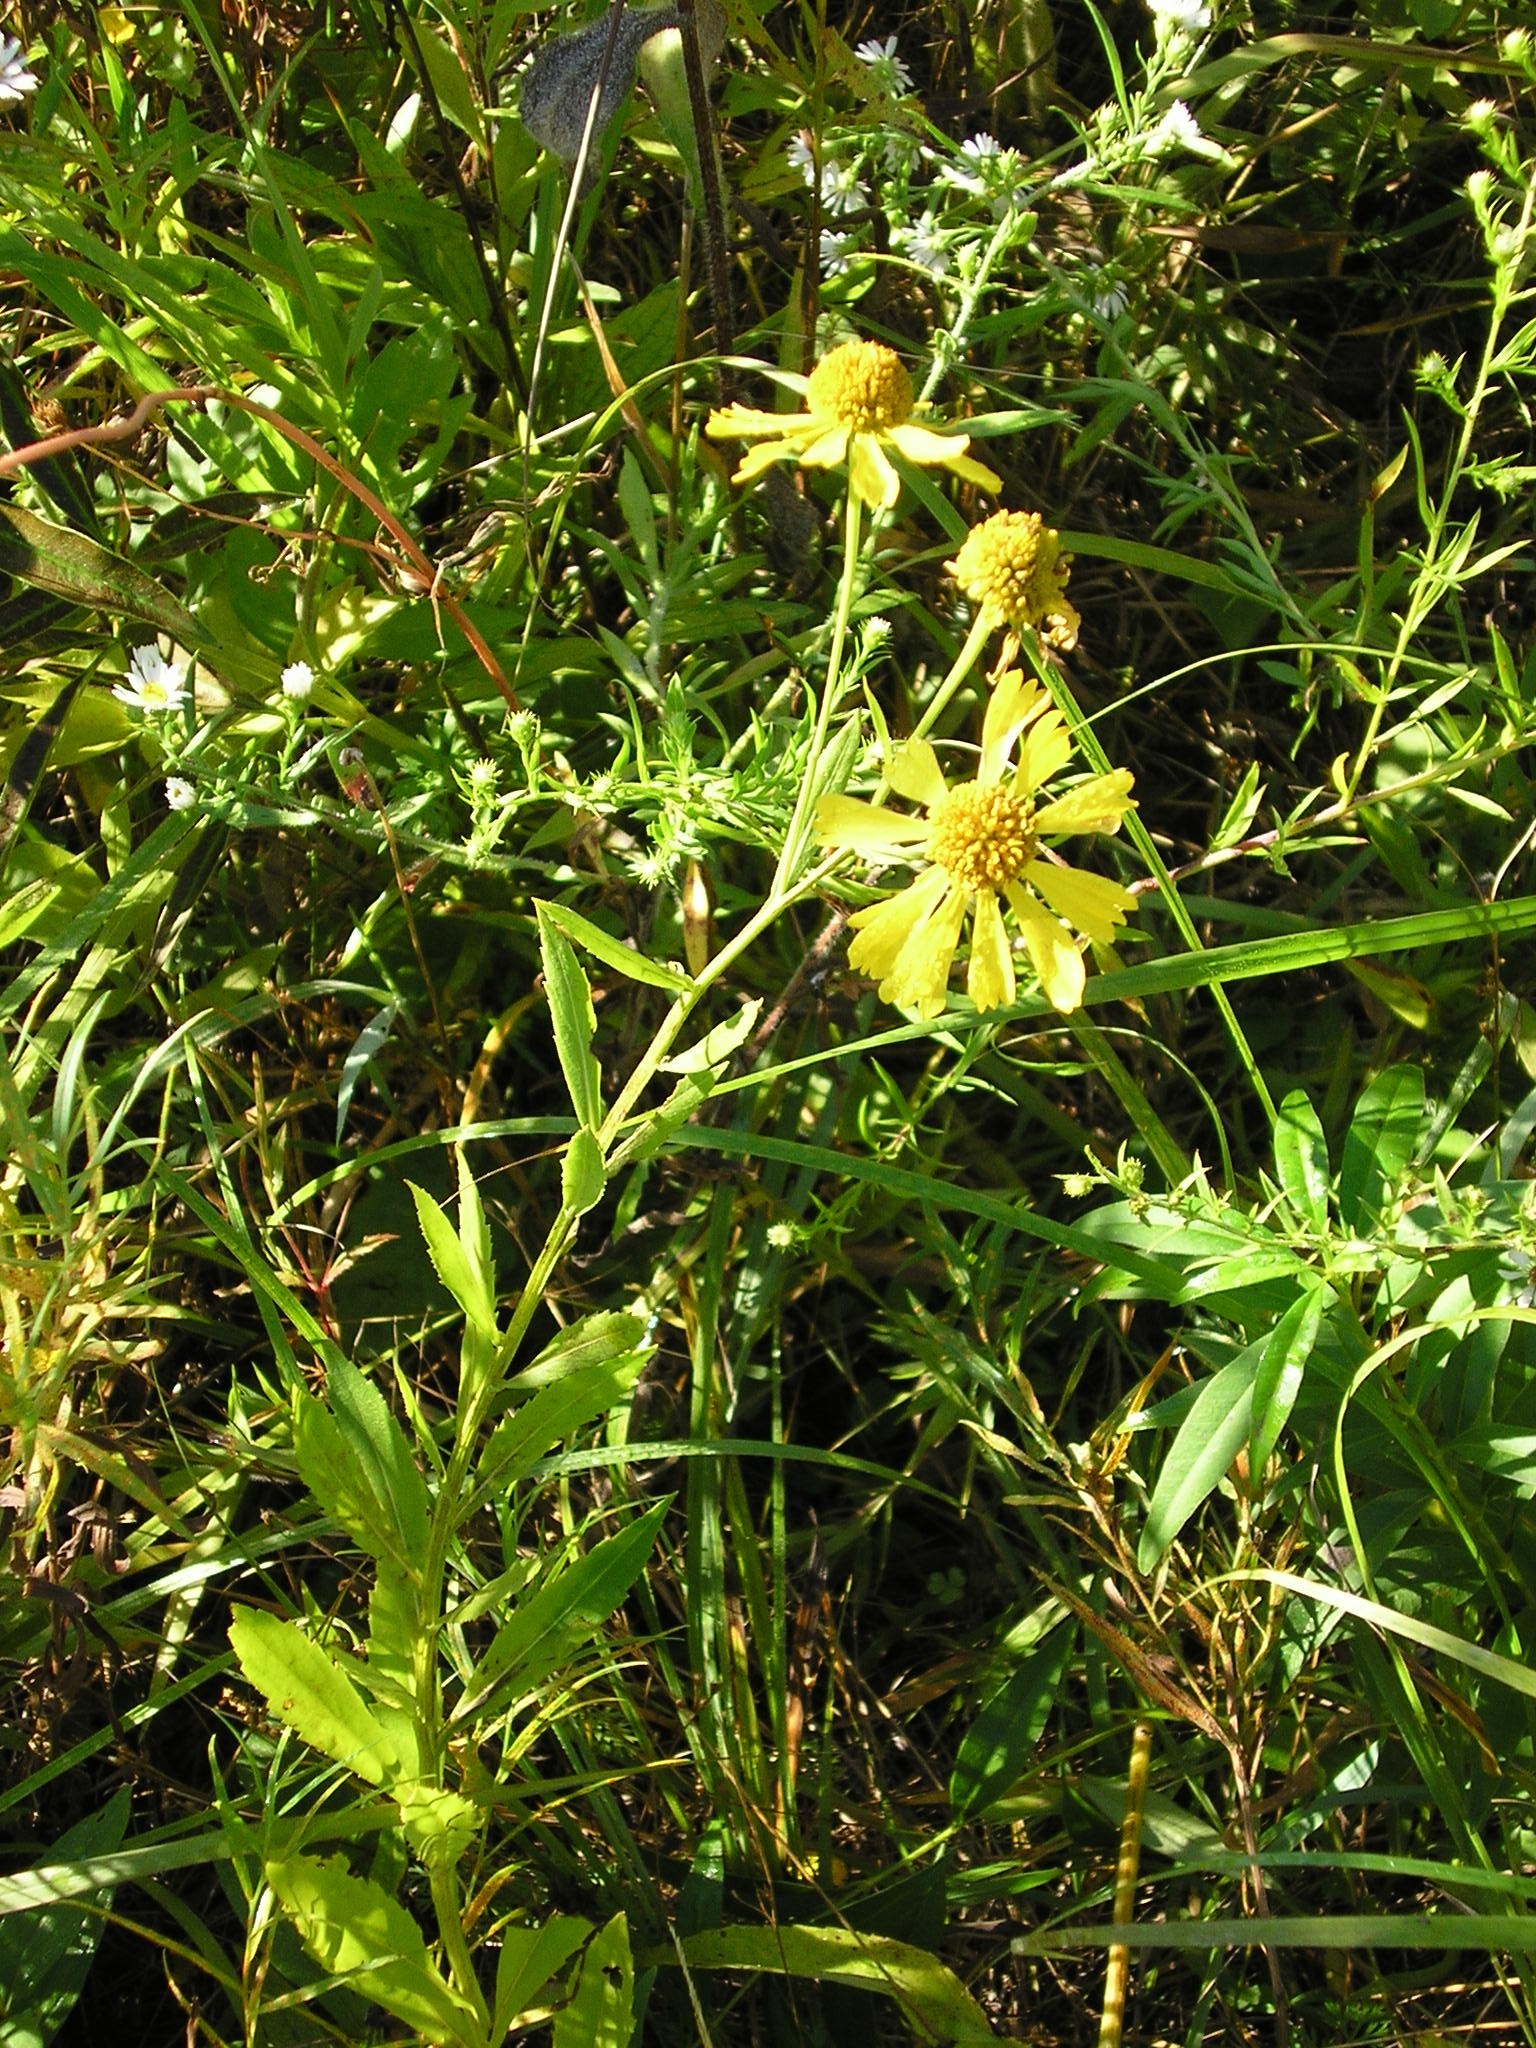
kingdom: Plantae
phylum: Tracheophyta
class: Magnoliopsida
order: Asterales
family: Asteraceae
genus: Helenium
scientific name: Helenium autumnale
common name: Sneezeweed
